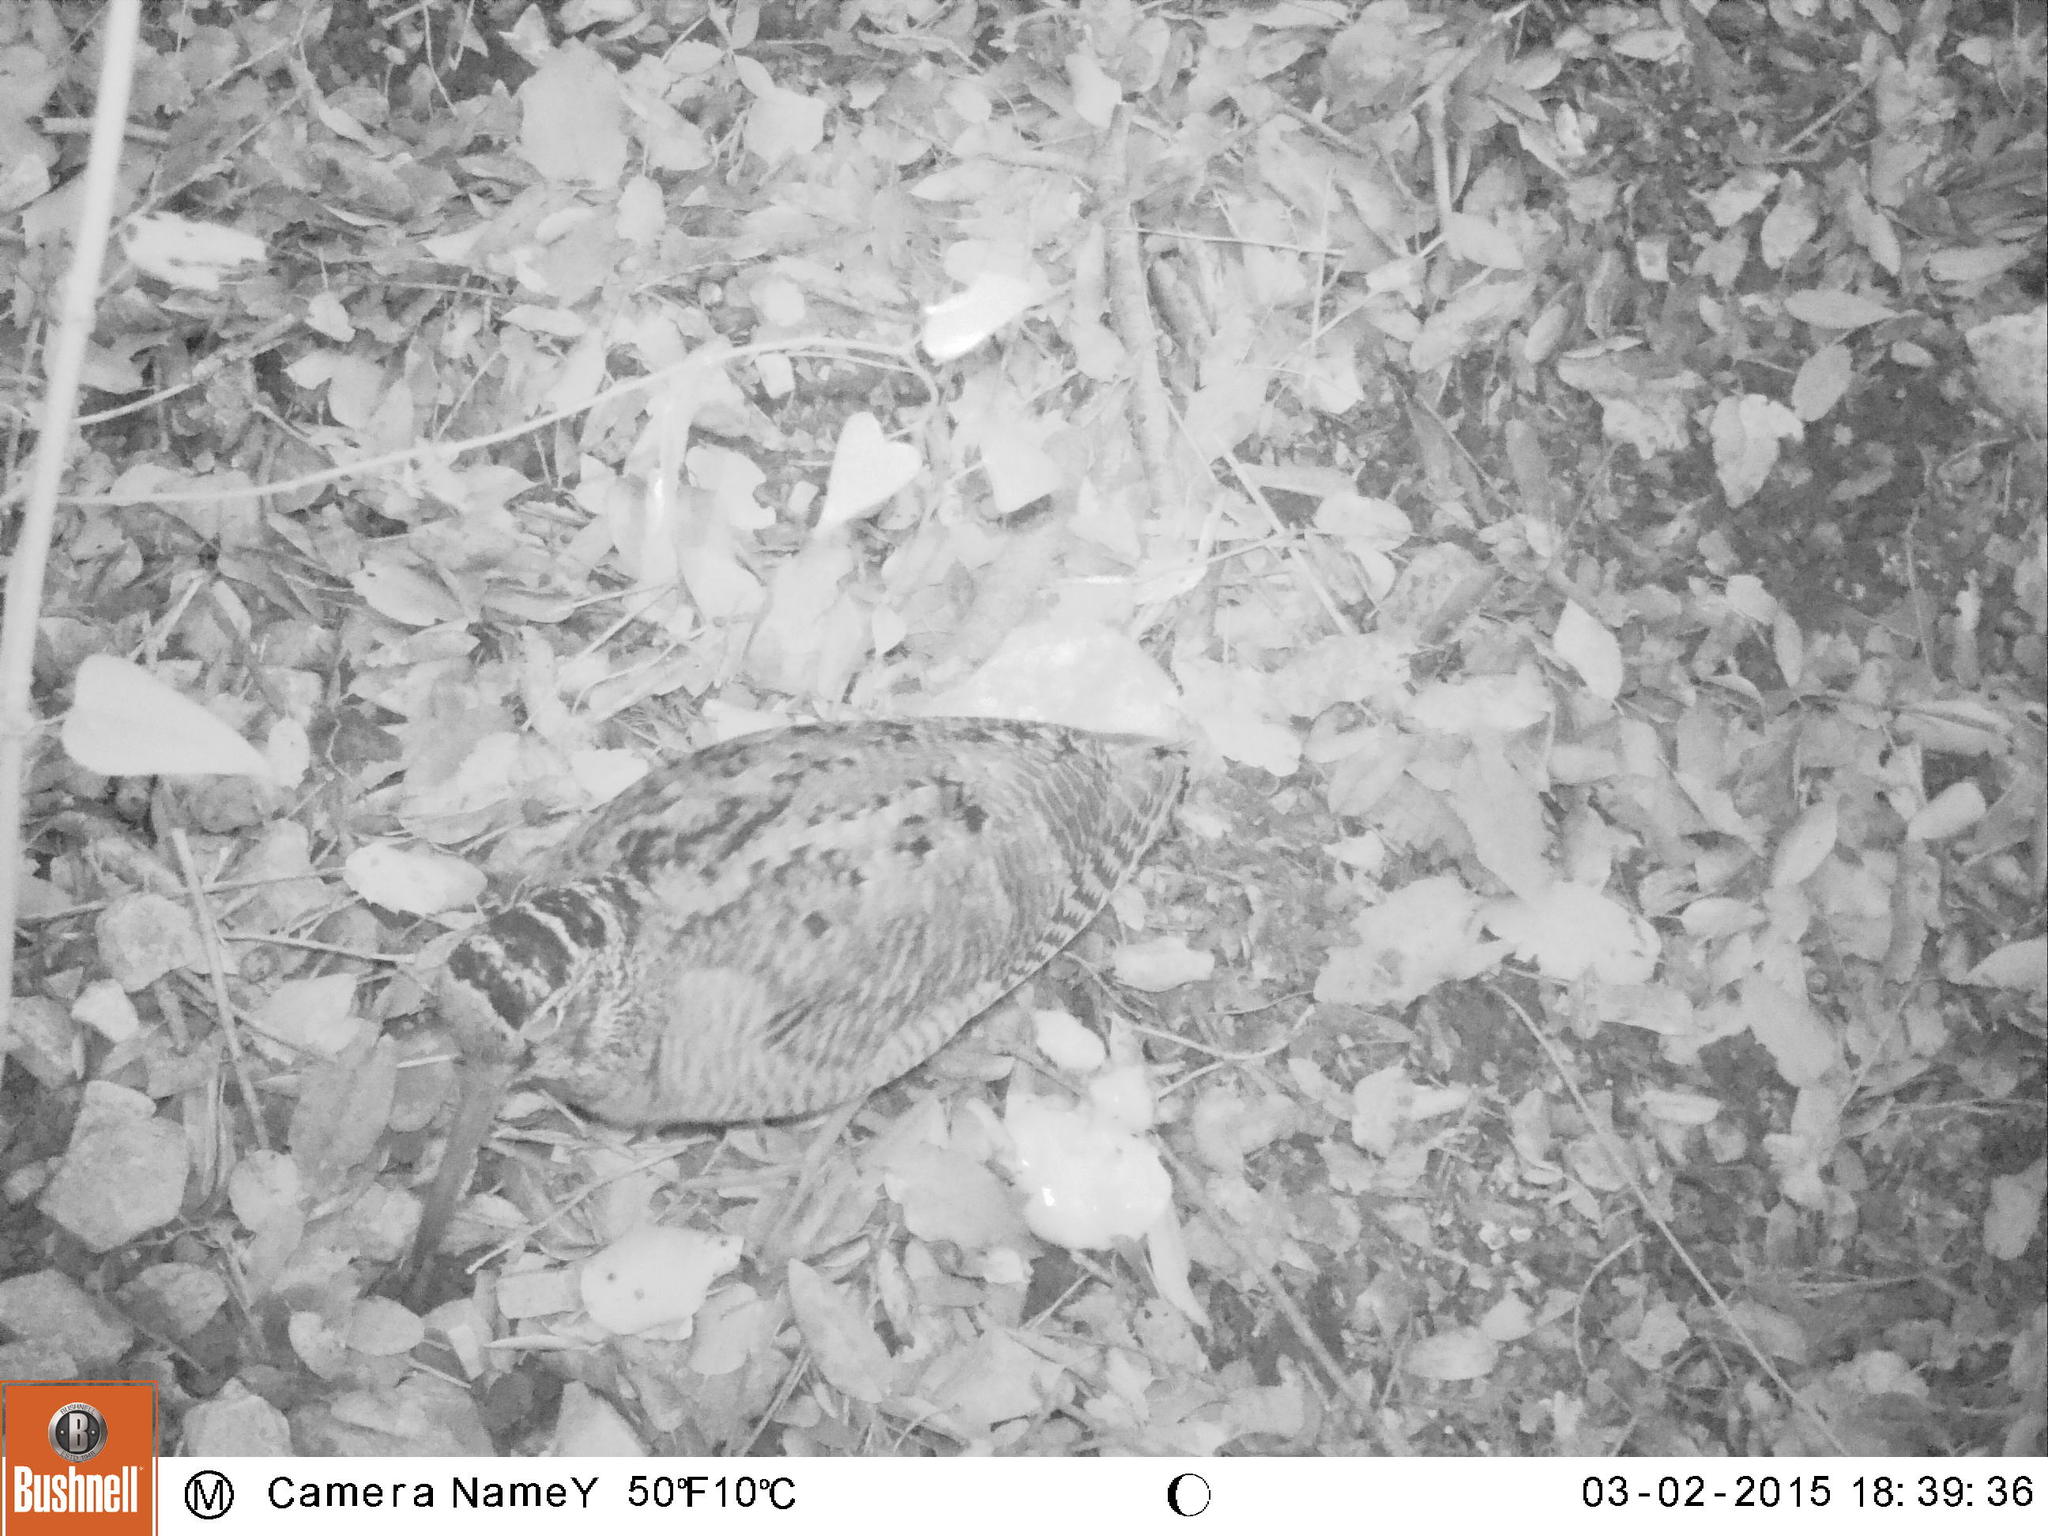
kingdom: Animalia
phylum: Chordata
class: Aves
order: Charadriiformes
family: Scolopacidae
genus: Scolopax
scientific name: Scolopax rusticola
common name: Eurasian woodcock
